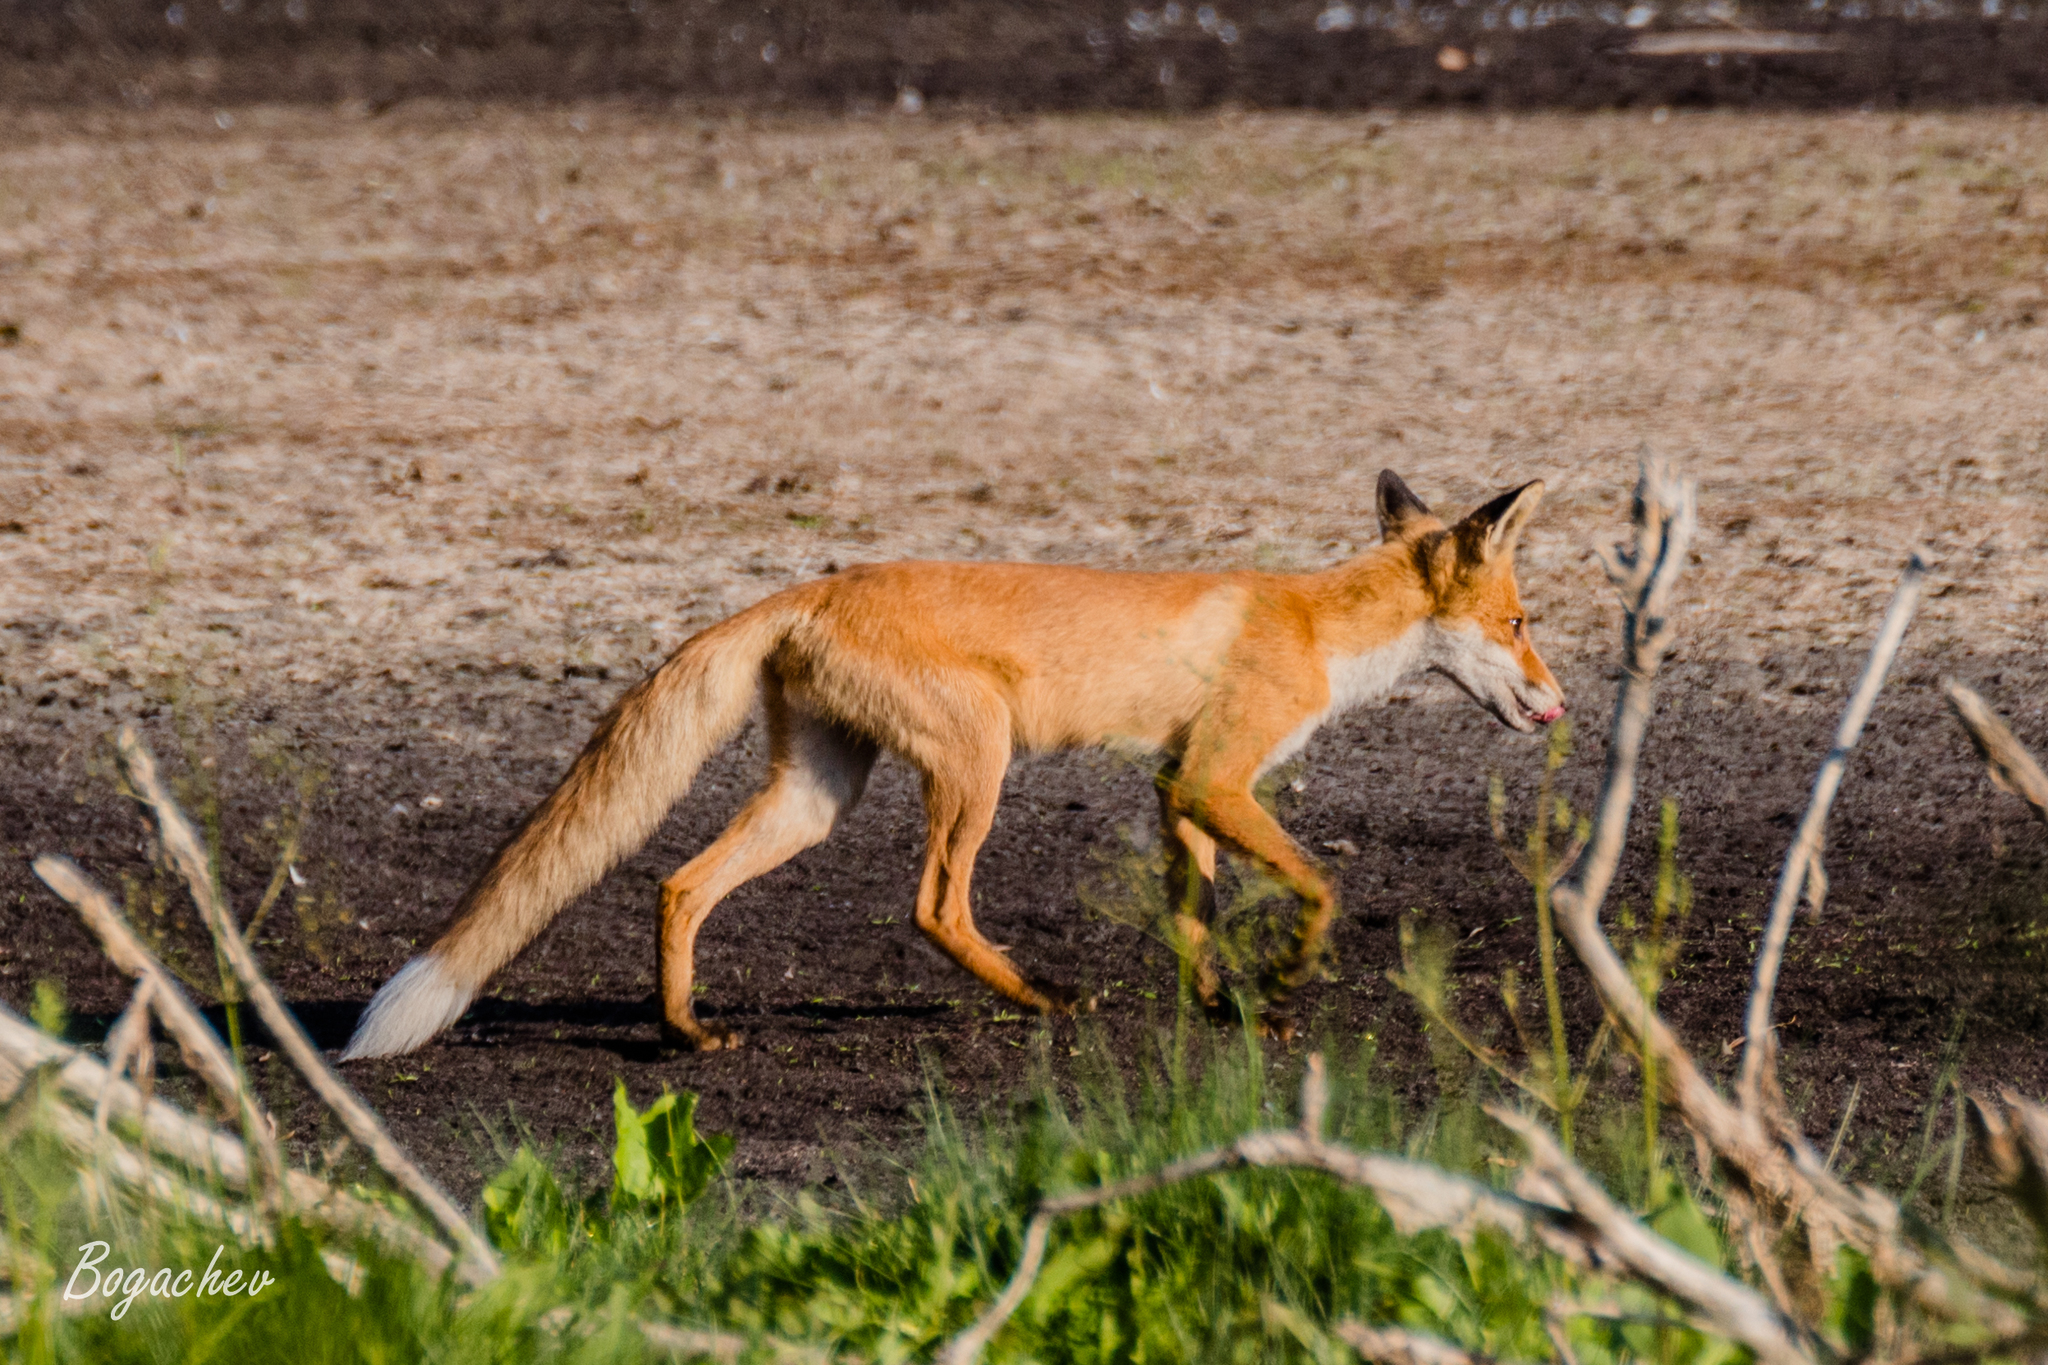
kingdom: Animalia
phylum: Chordata
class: Mammalia
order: Carnivora
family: Canidae
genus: Vulpes
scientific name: Vulpes vulpes
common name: Red fox
